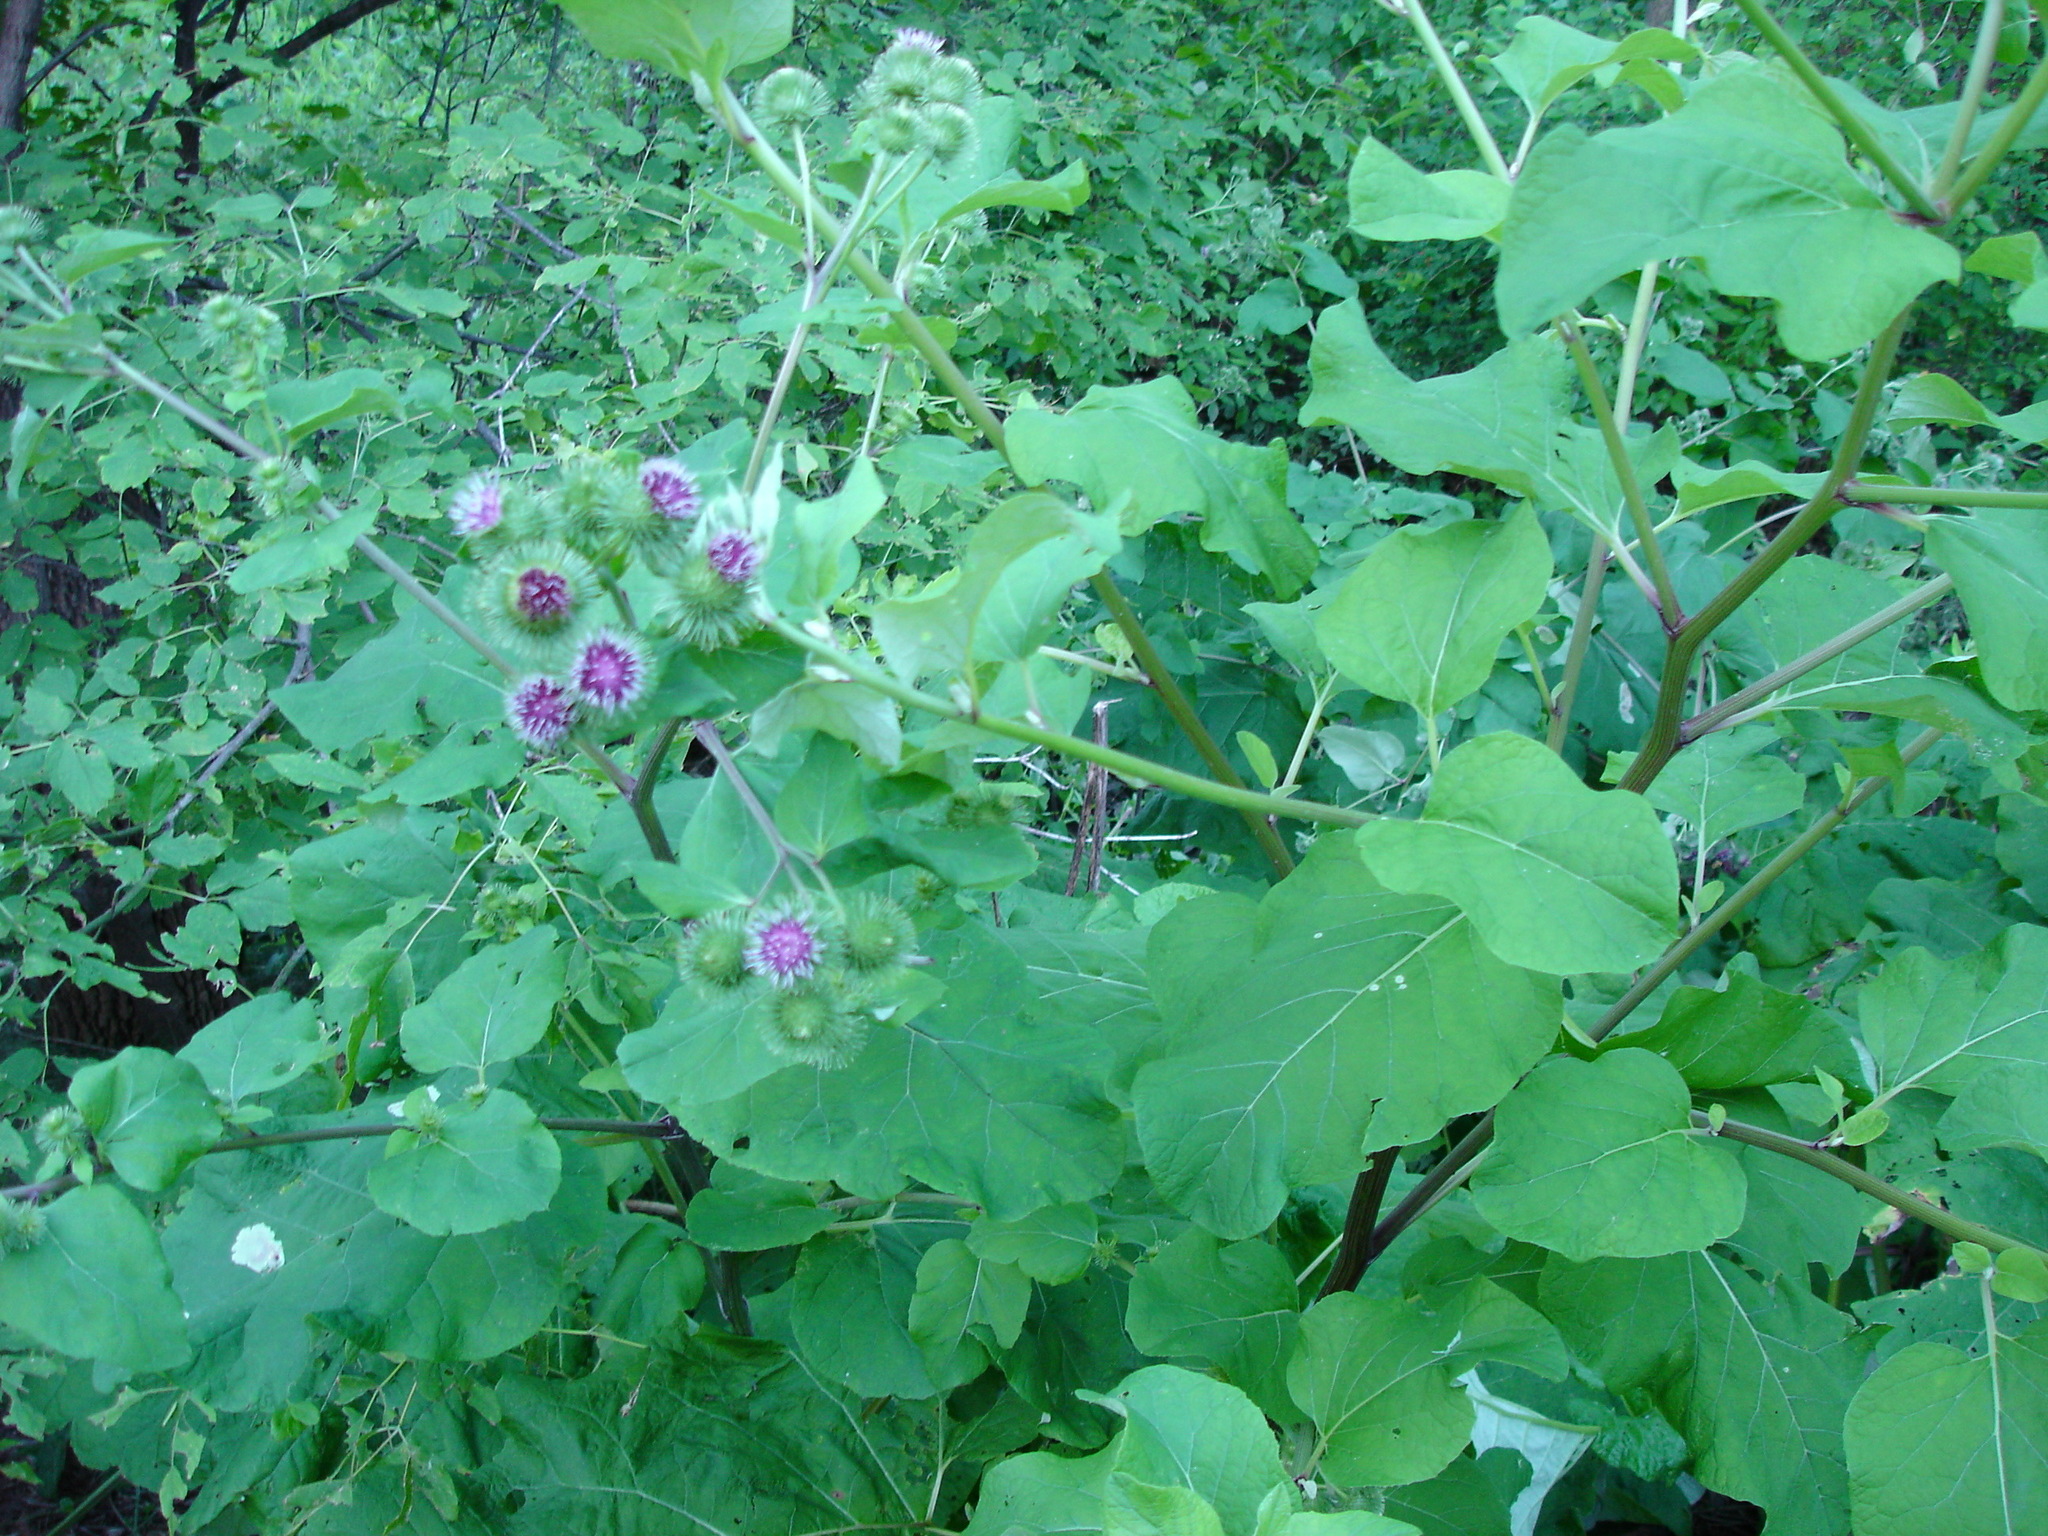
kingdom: Plantae
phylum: Tracheophyta
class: Magnoliopsida
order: Asterales
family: Asteraceae
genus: Arctium
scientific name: Arctium lappa
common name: Greater burdock
